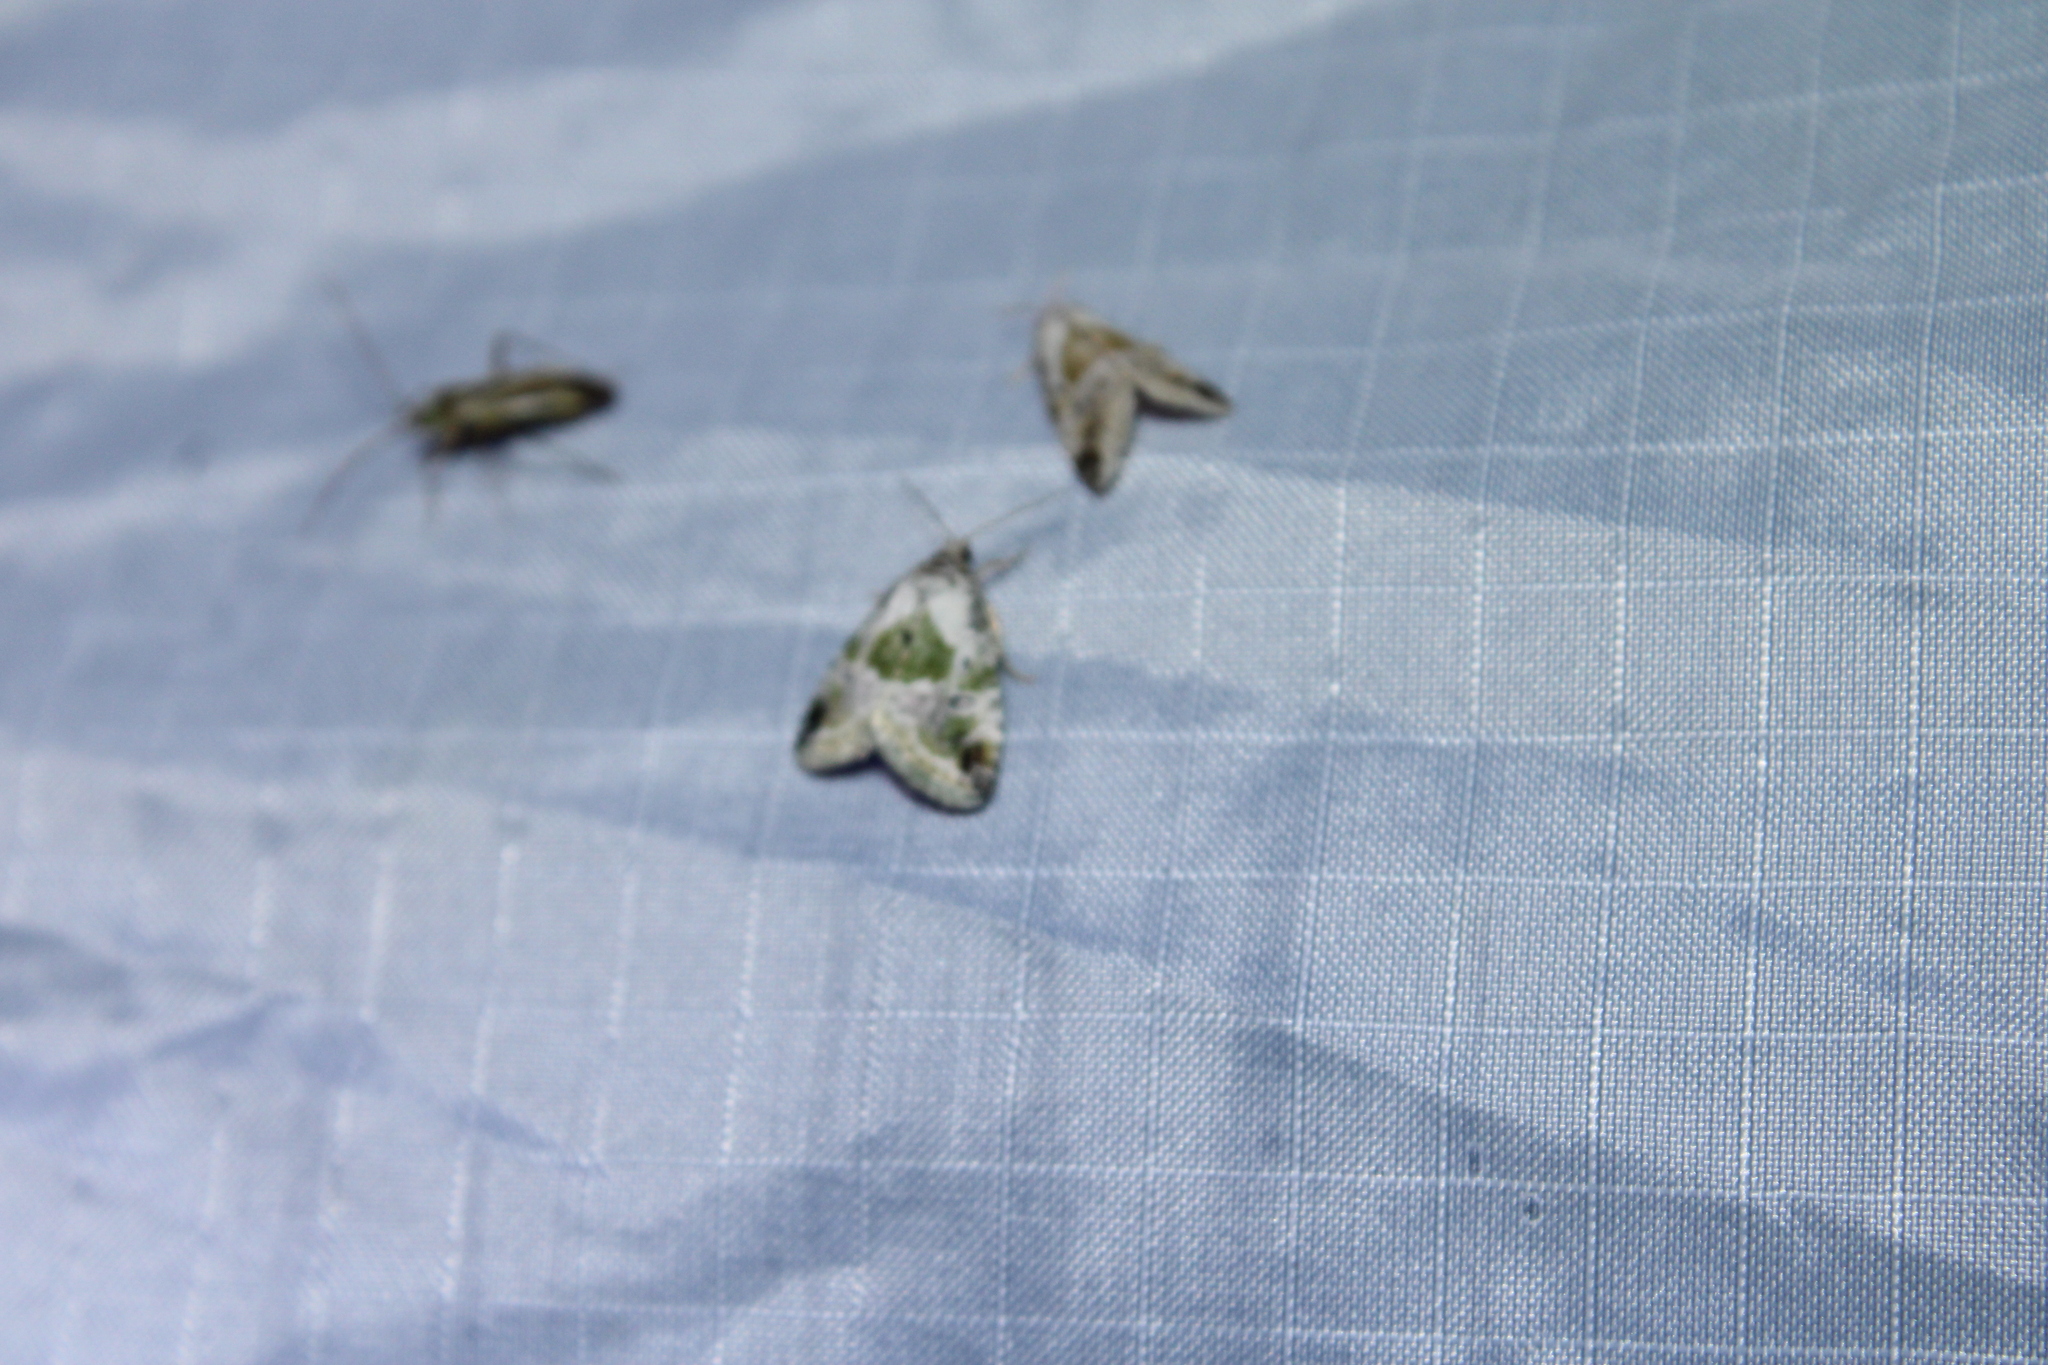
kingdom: Animalia
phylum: Arthropoda
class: Insecta
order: Lepidoptera
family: Noctuidae
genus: Maliattha
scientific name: Maliattha synochitis
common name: Black-dotted glyph
